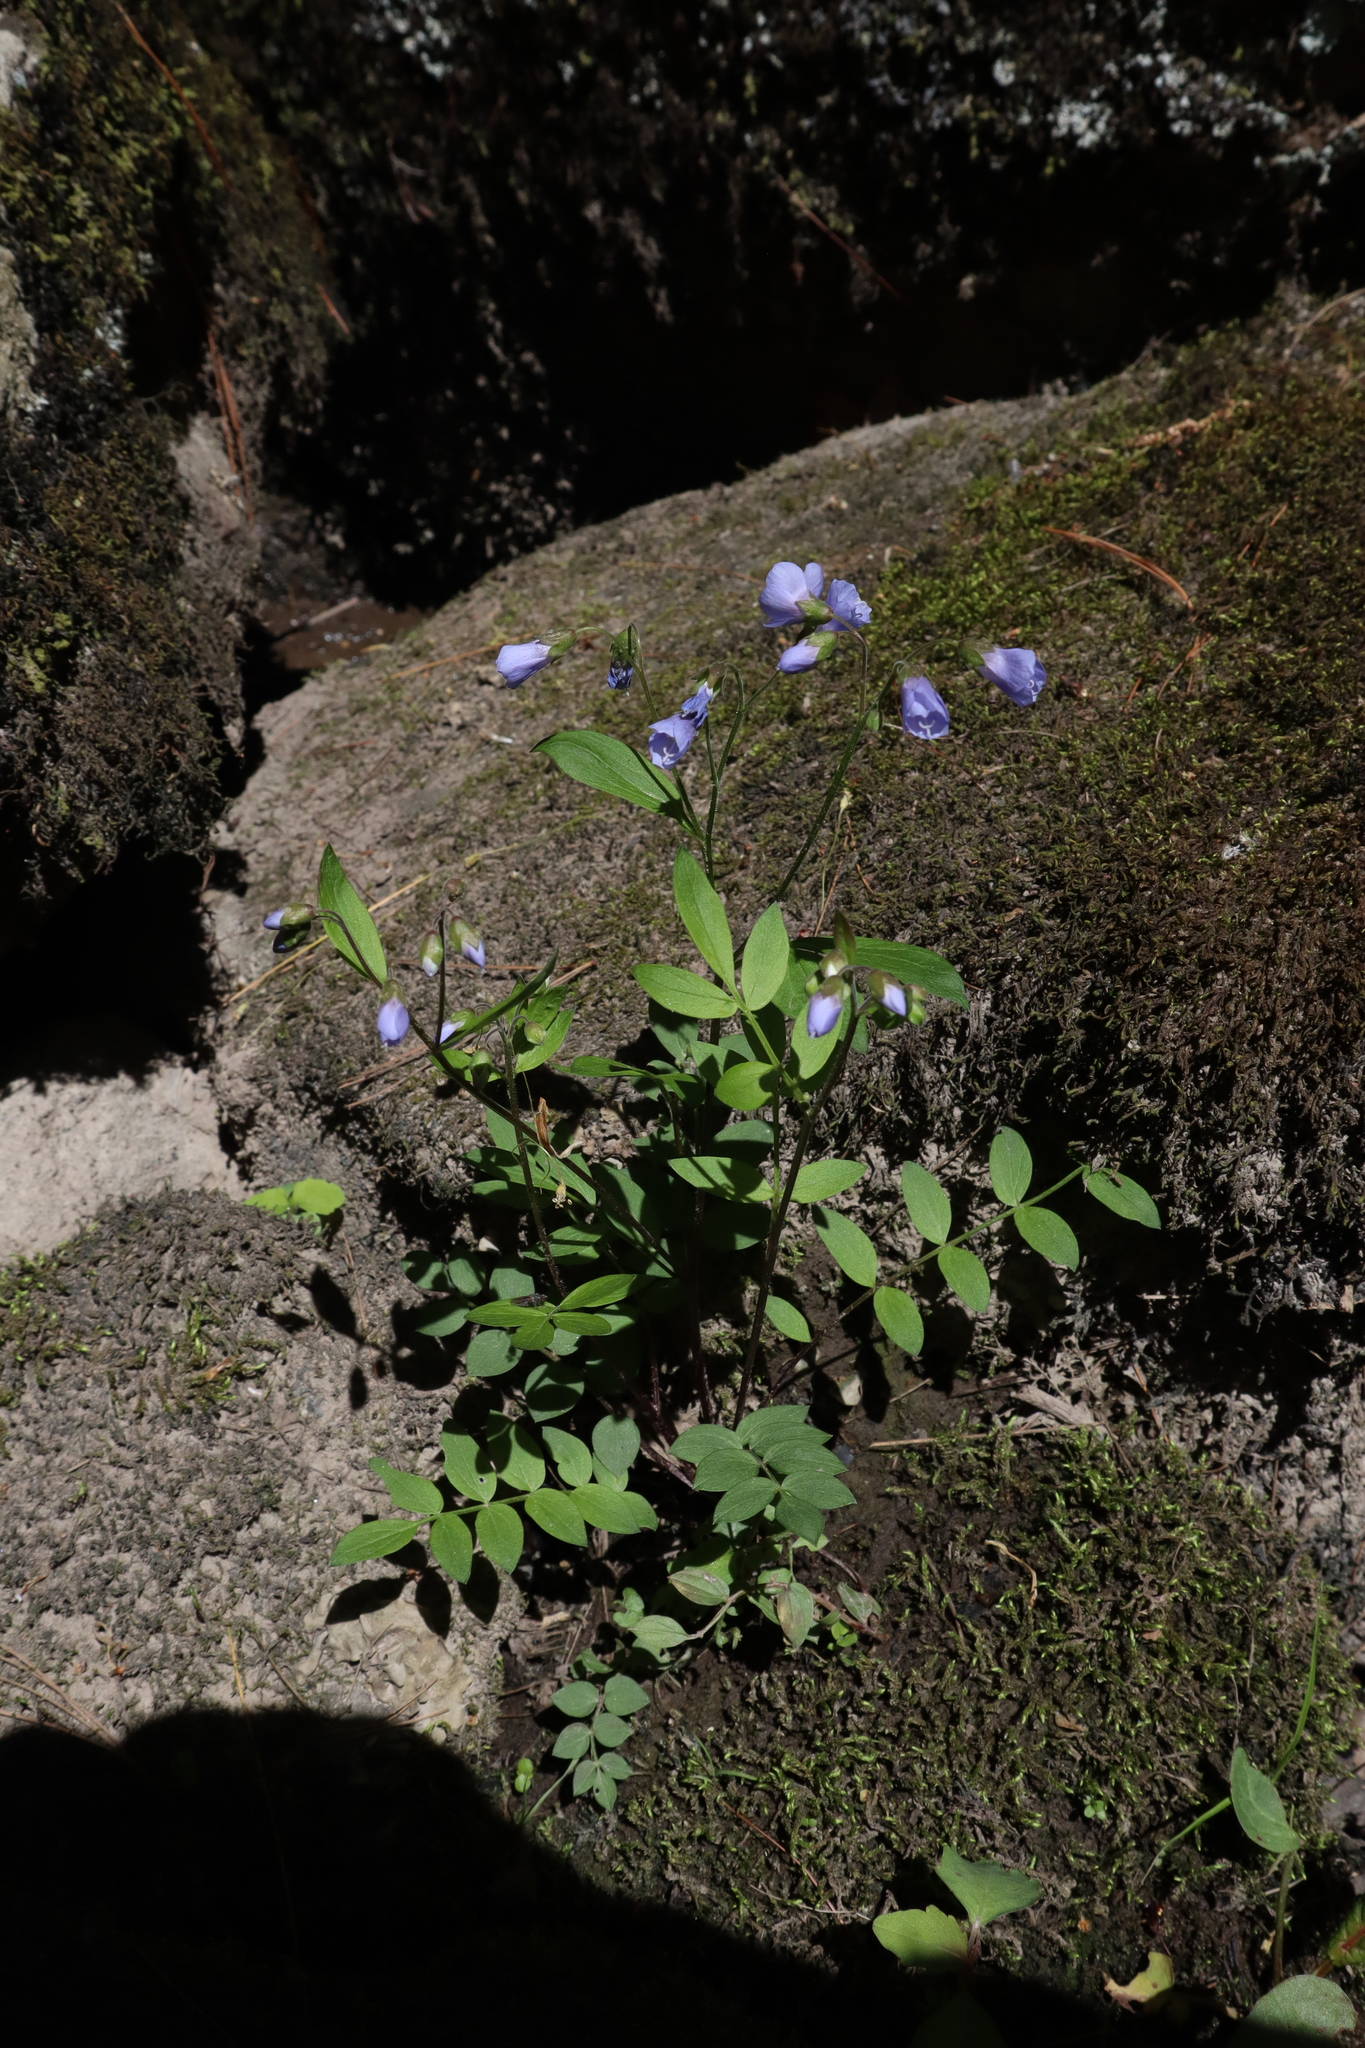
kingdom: Plantae
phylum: Tracheophyta
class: Magnoliopsida
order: Ericales
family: Polemoniaceae
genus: Polemonium
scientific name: Polemonium reptans
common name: Creeping jacob's-ladder
